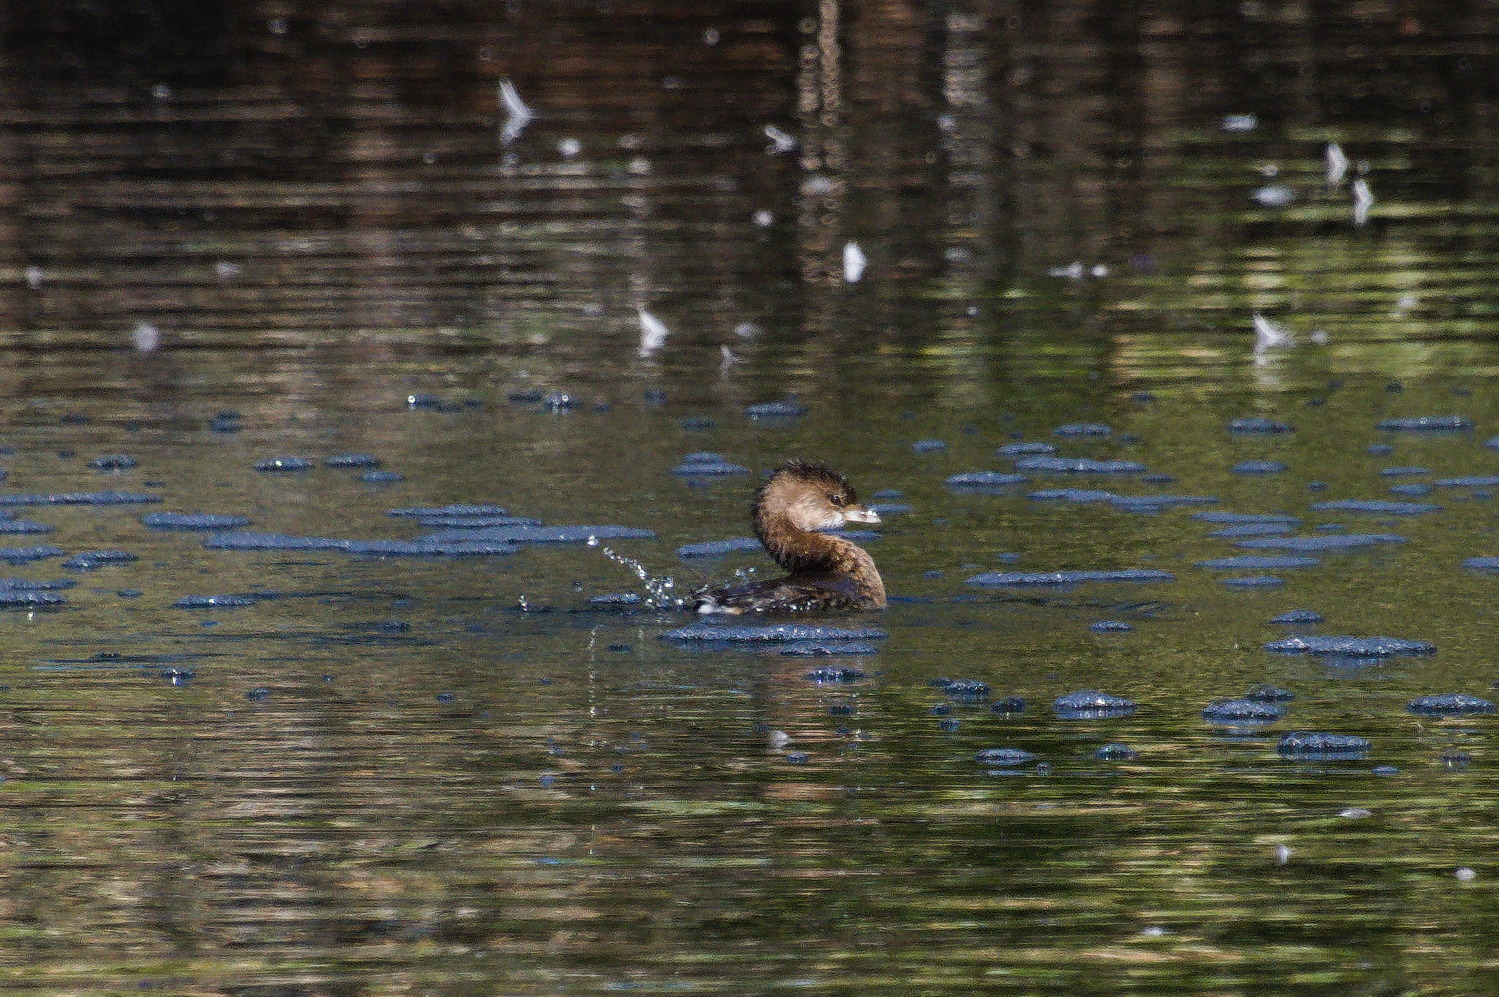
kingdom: Animalia
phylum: Chordata
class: Aves
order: Podicipediformes
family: Podicipedidae
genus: Podilymbus
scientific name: Podilymbus podiceps
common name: Pied-billed grebe
